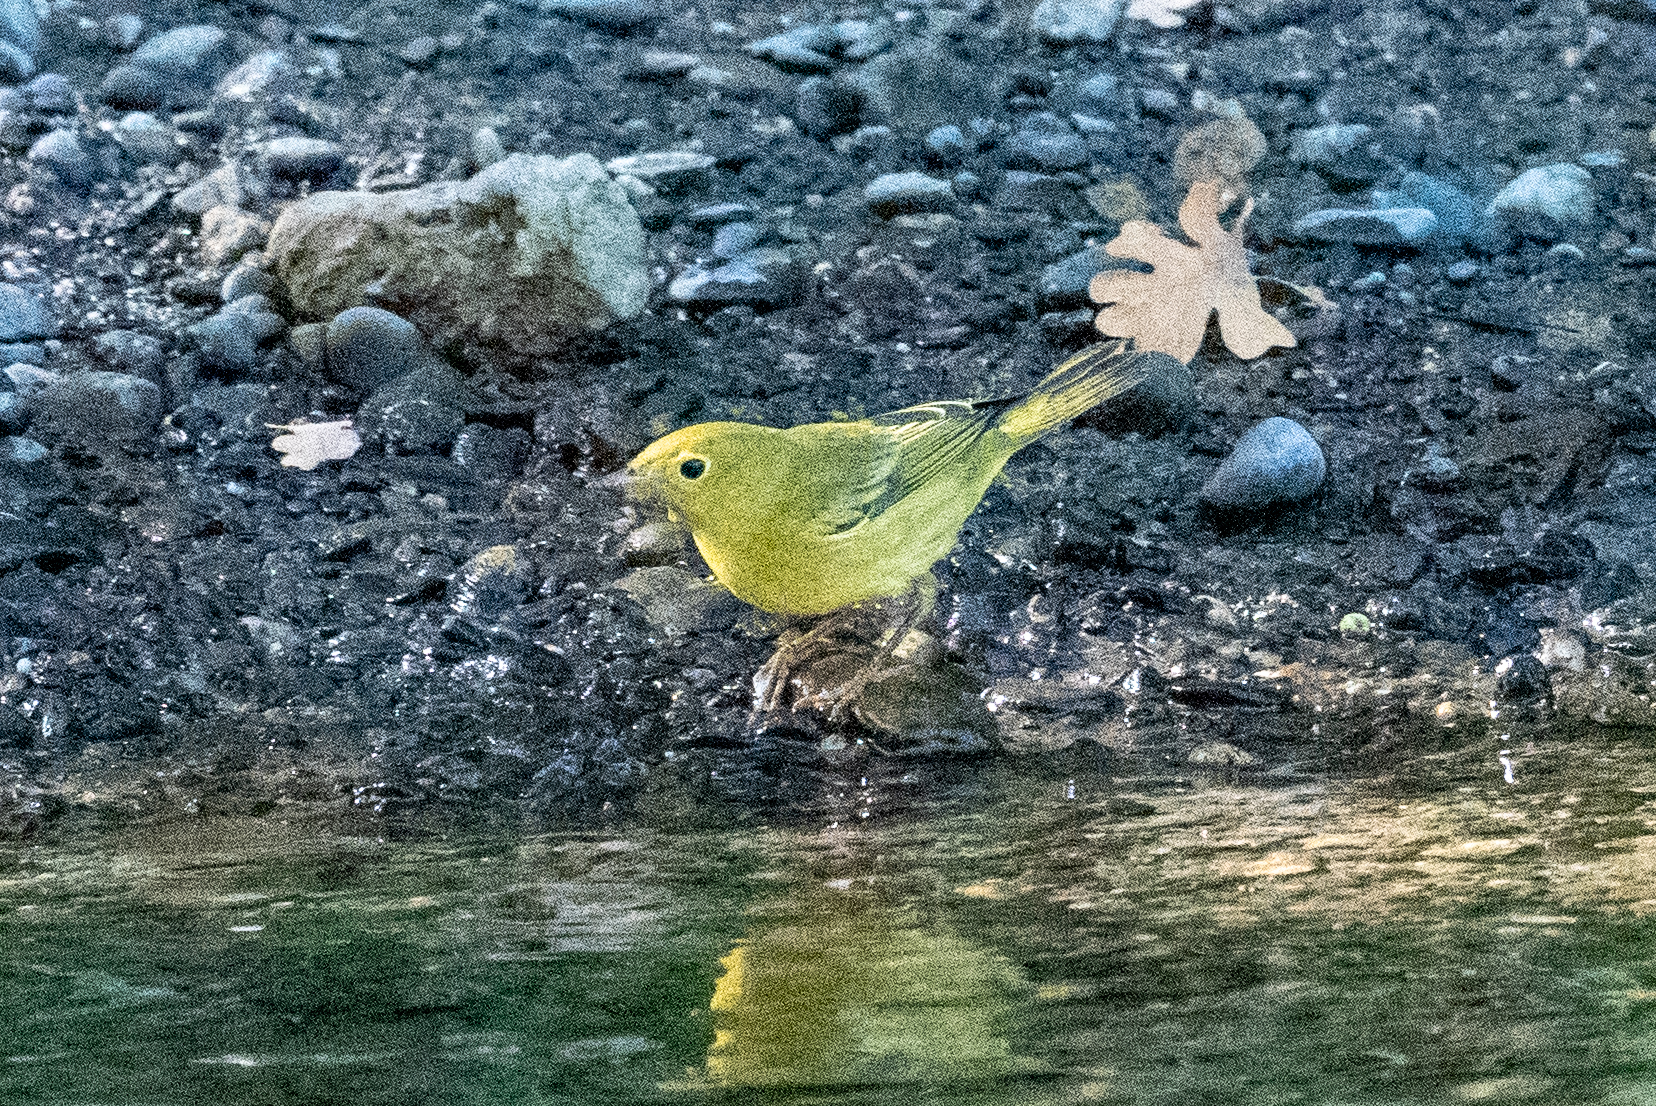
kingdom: Animalia
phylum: Chordata
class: Aves
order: Passeriformes
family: Parulidae
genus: Setophaga
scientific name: Setophaga petechia
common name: Yellow warbler
